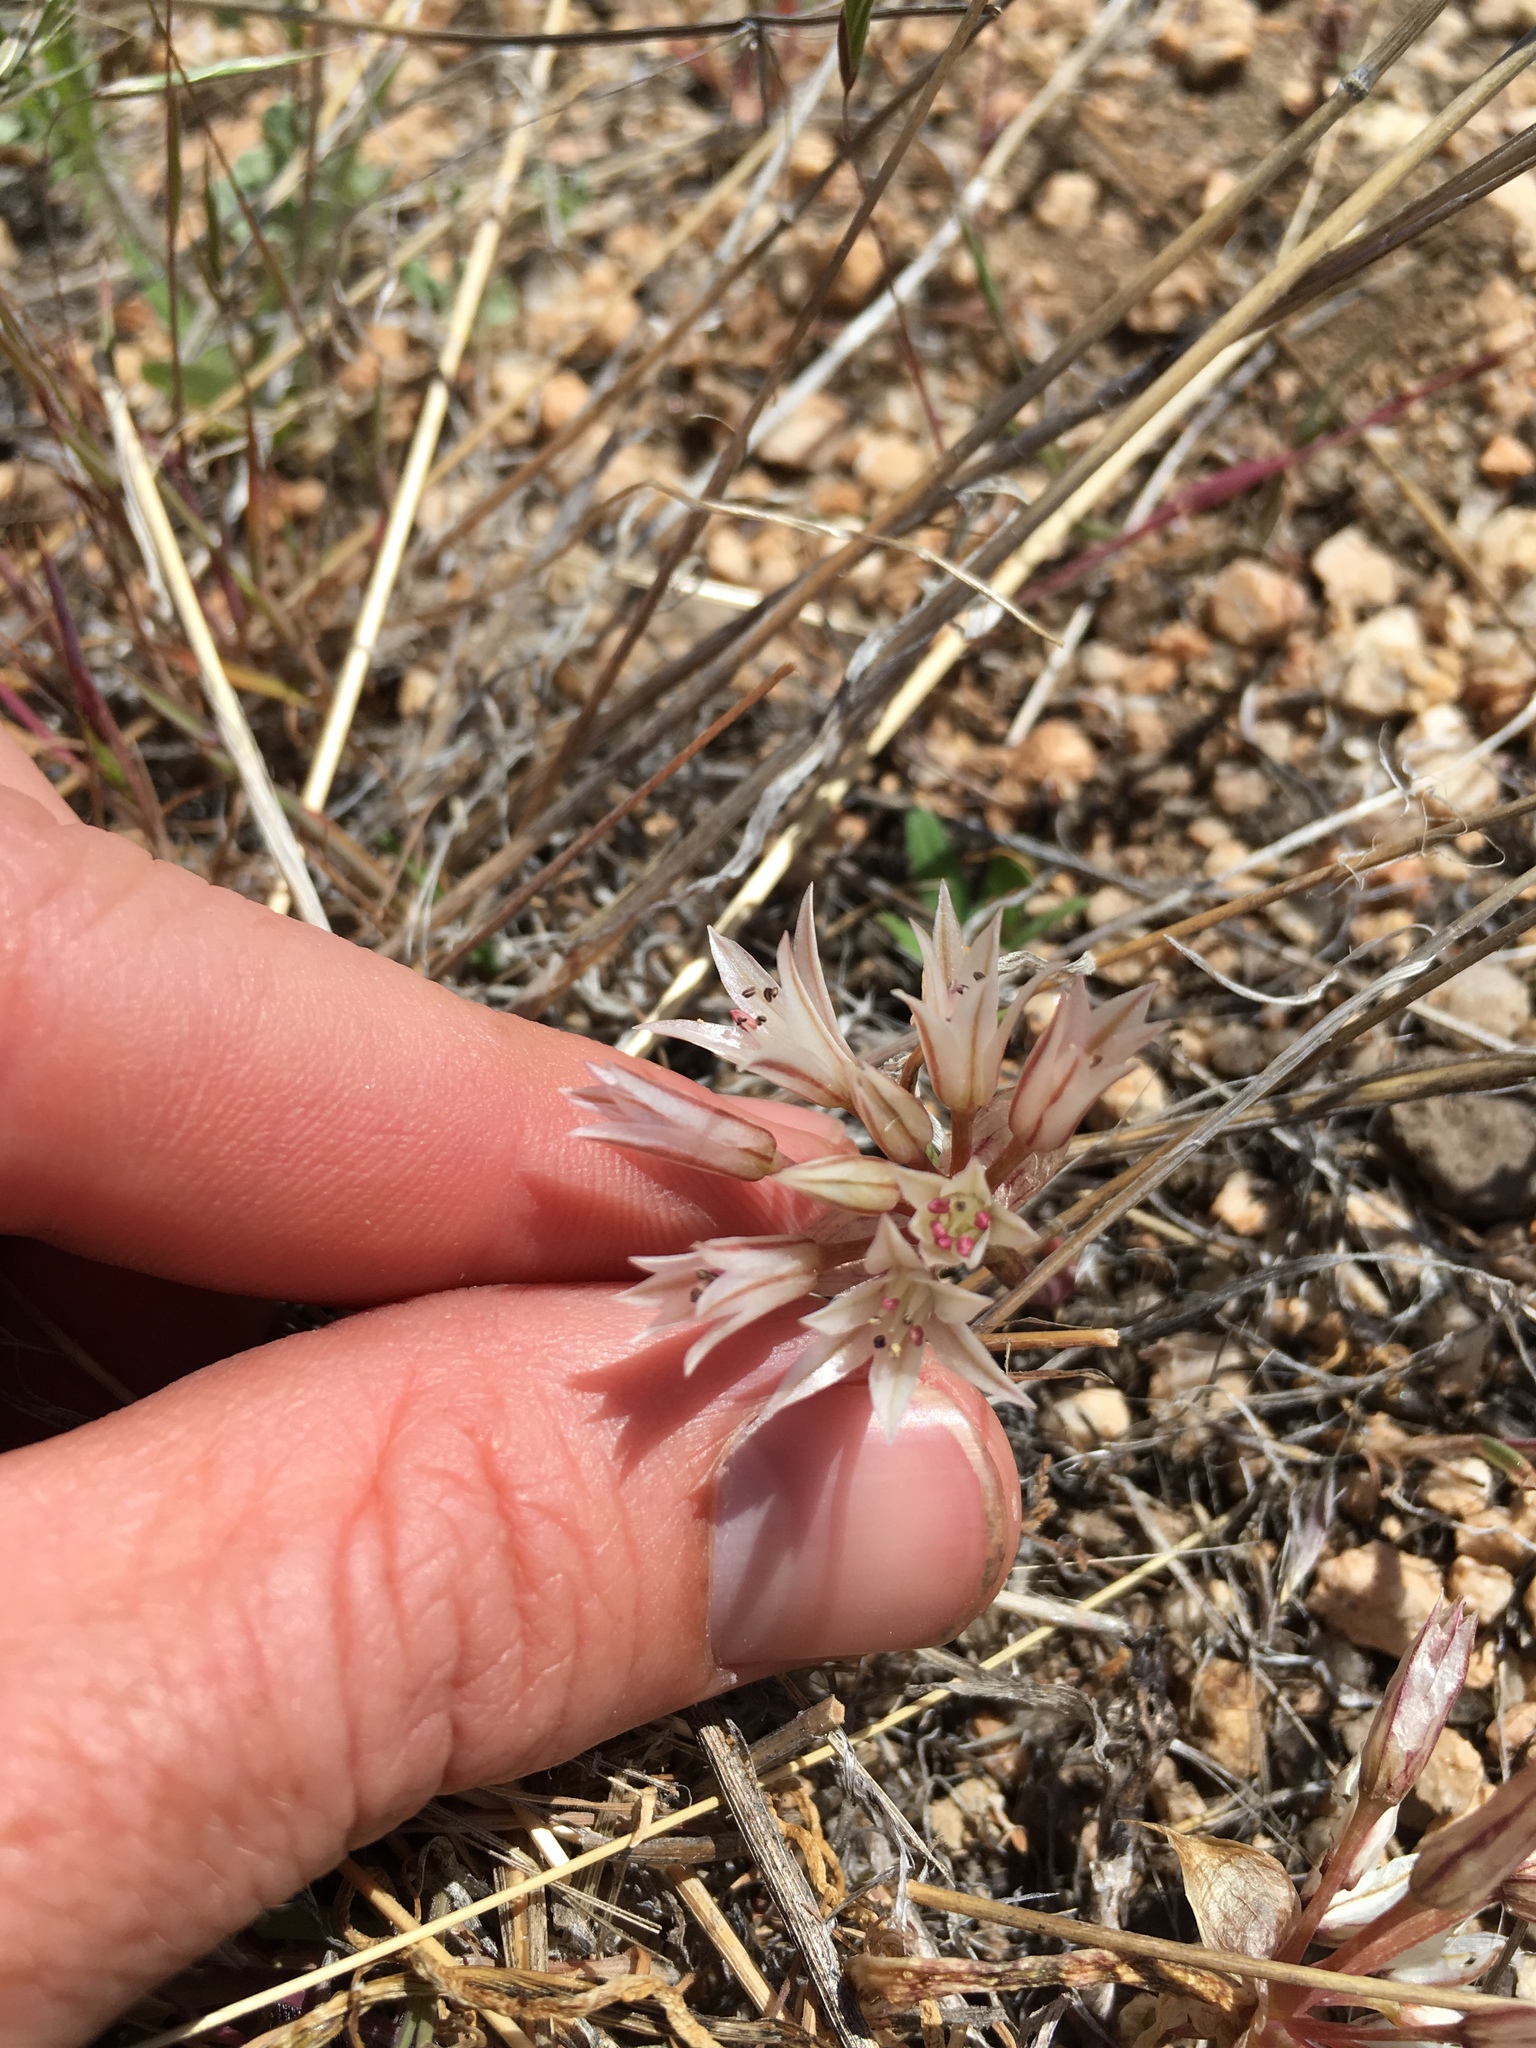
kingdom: Plantae
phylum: Tracheophyta
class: Liliopsida
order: Asparagales
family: Amaryllidaceae
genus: Allium
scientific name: Allium atrorubens
